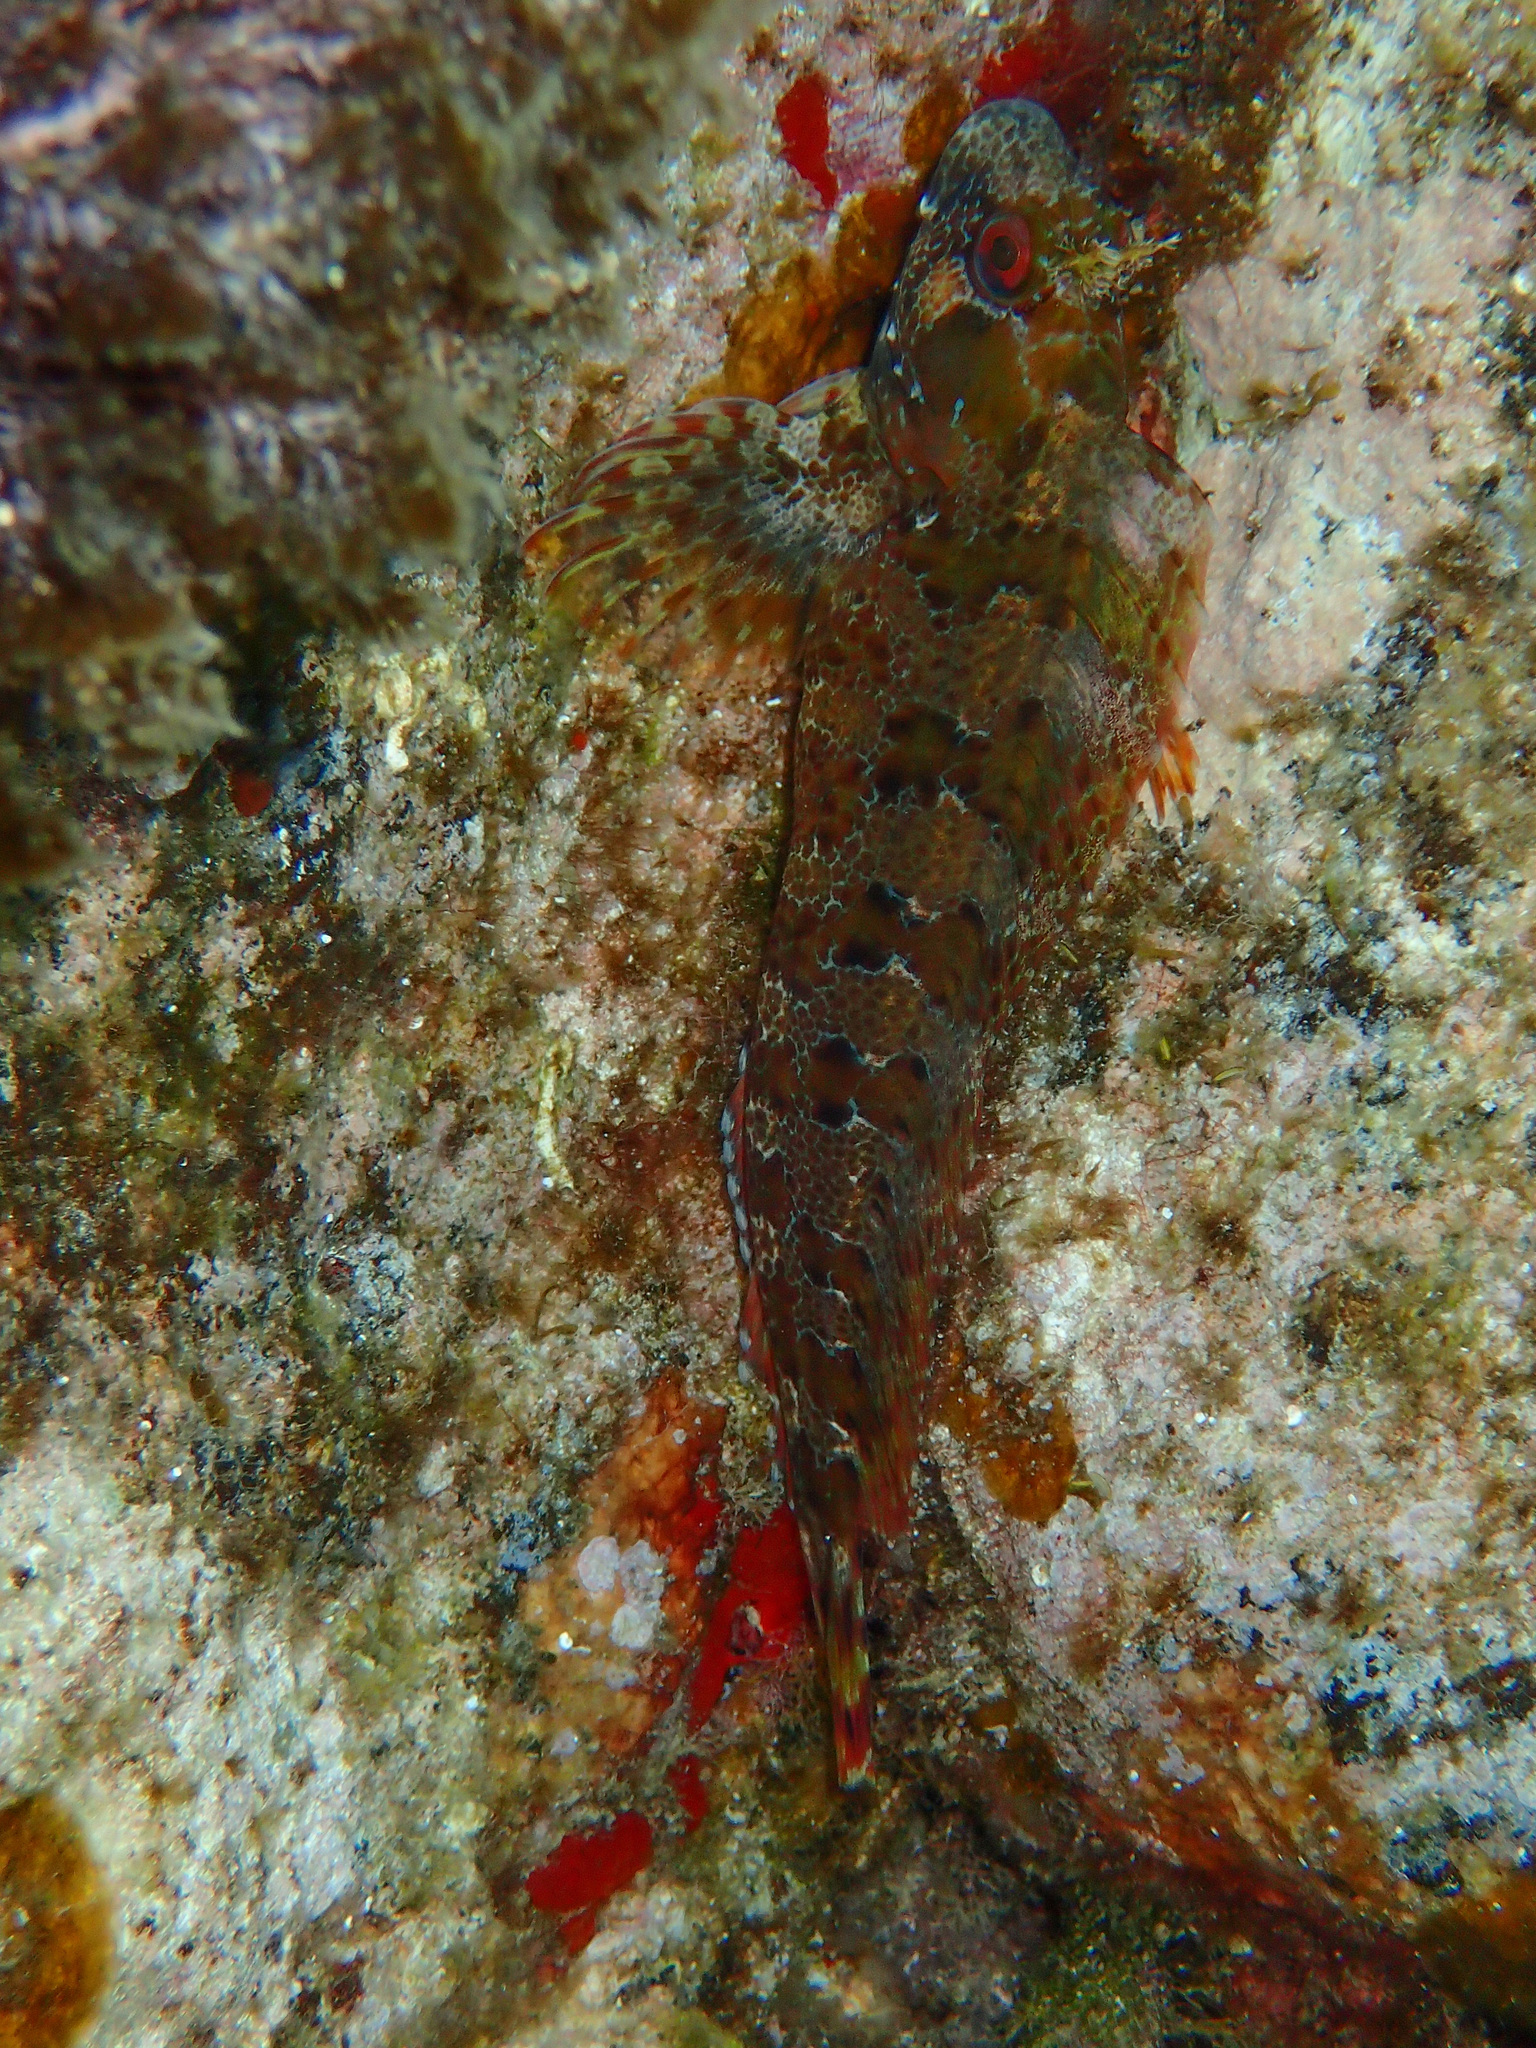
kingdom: Animalia
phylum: Chordata
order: Perciformes
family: Blenniidae
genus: Parablennius
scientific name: Parablennius gattorugine
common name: Tompot blenny
